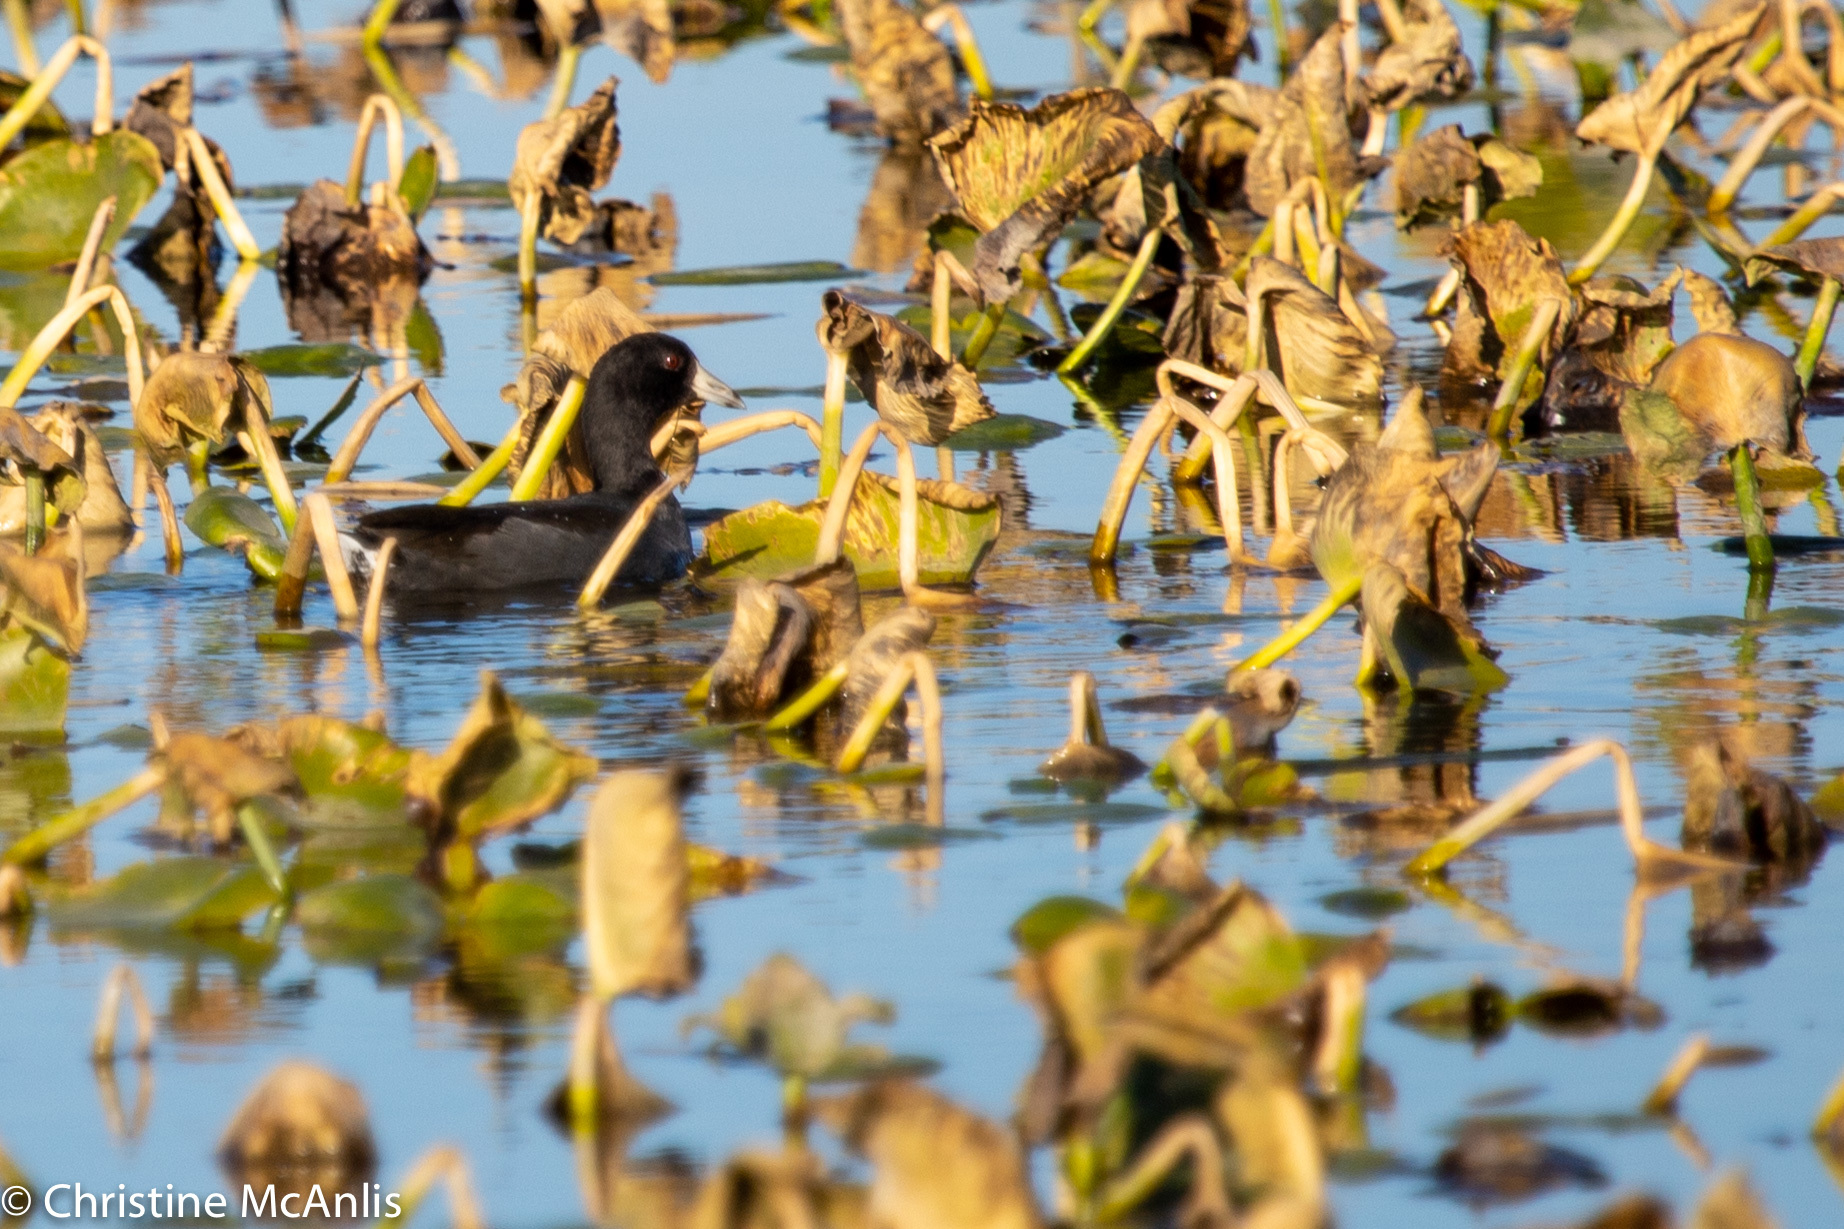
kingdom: Animalia
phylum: Chordata
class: Aves
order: Gruiformes
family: Rallidae
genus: Fulica
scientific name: Fulica americana
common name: American coot
